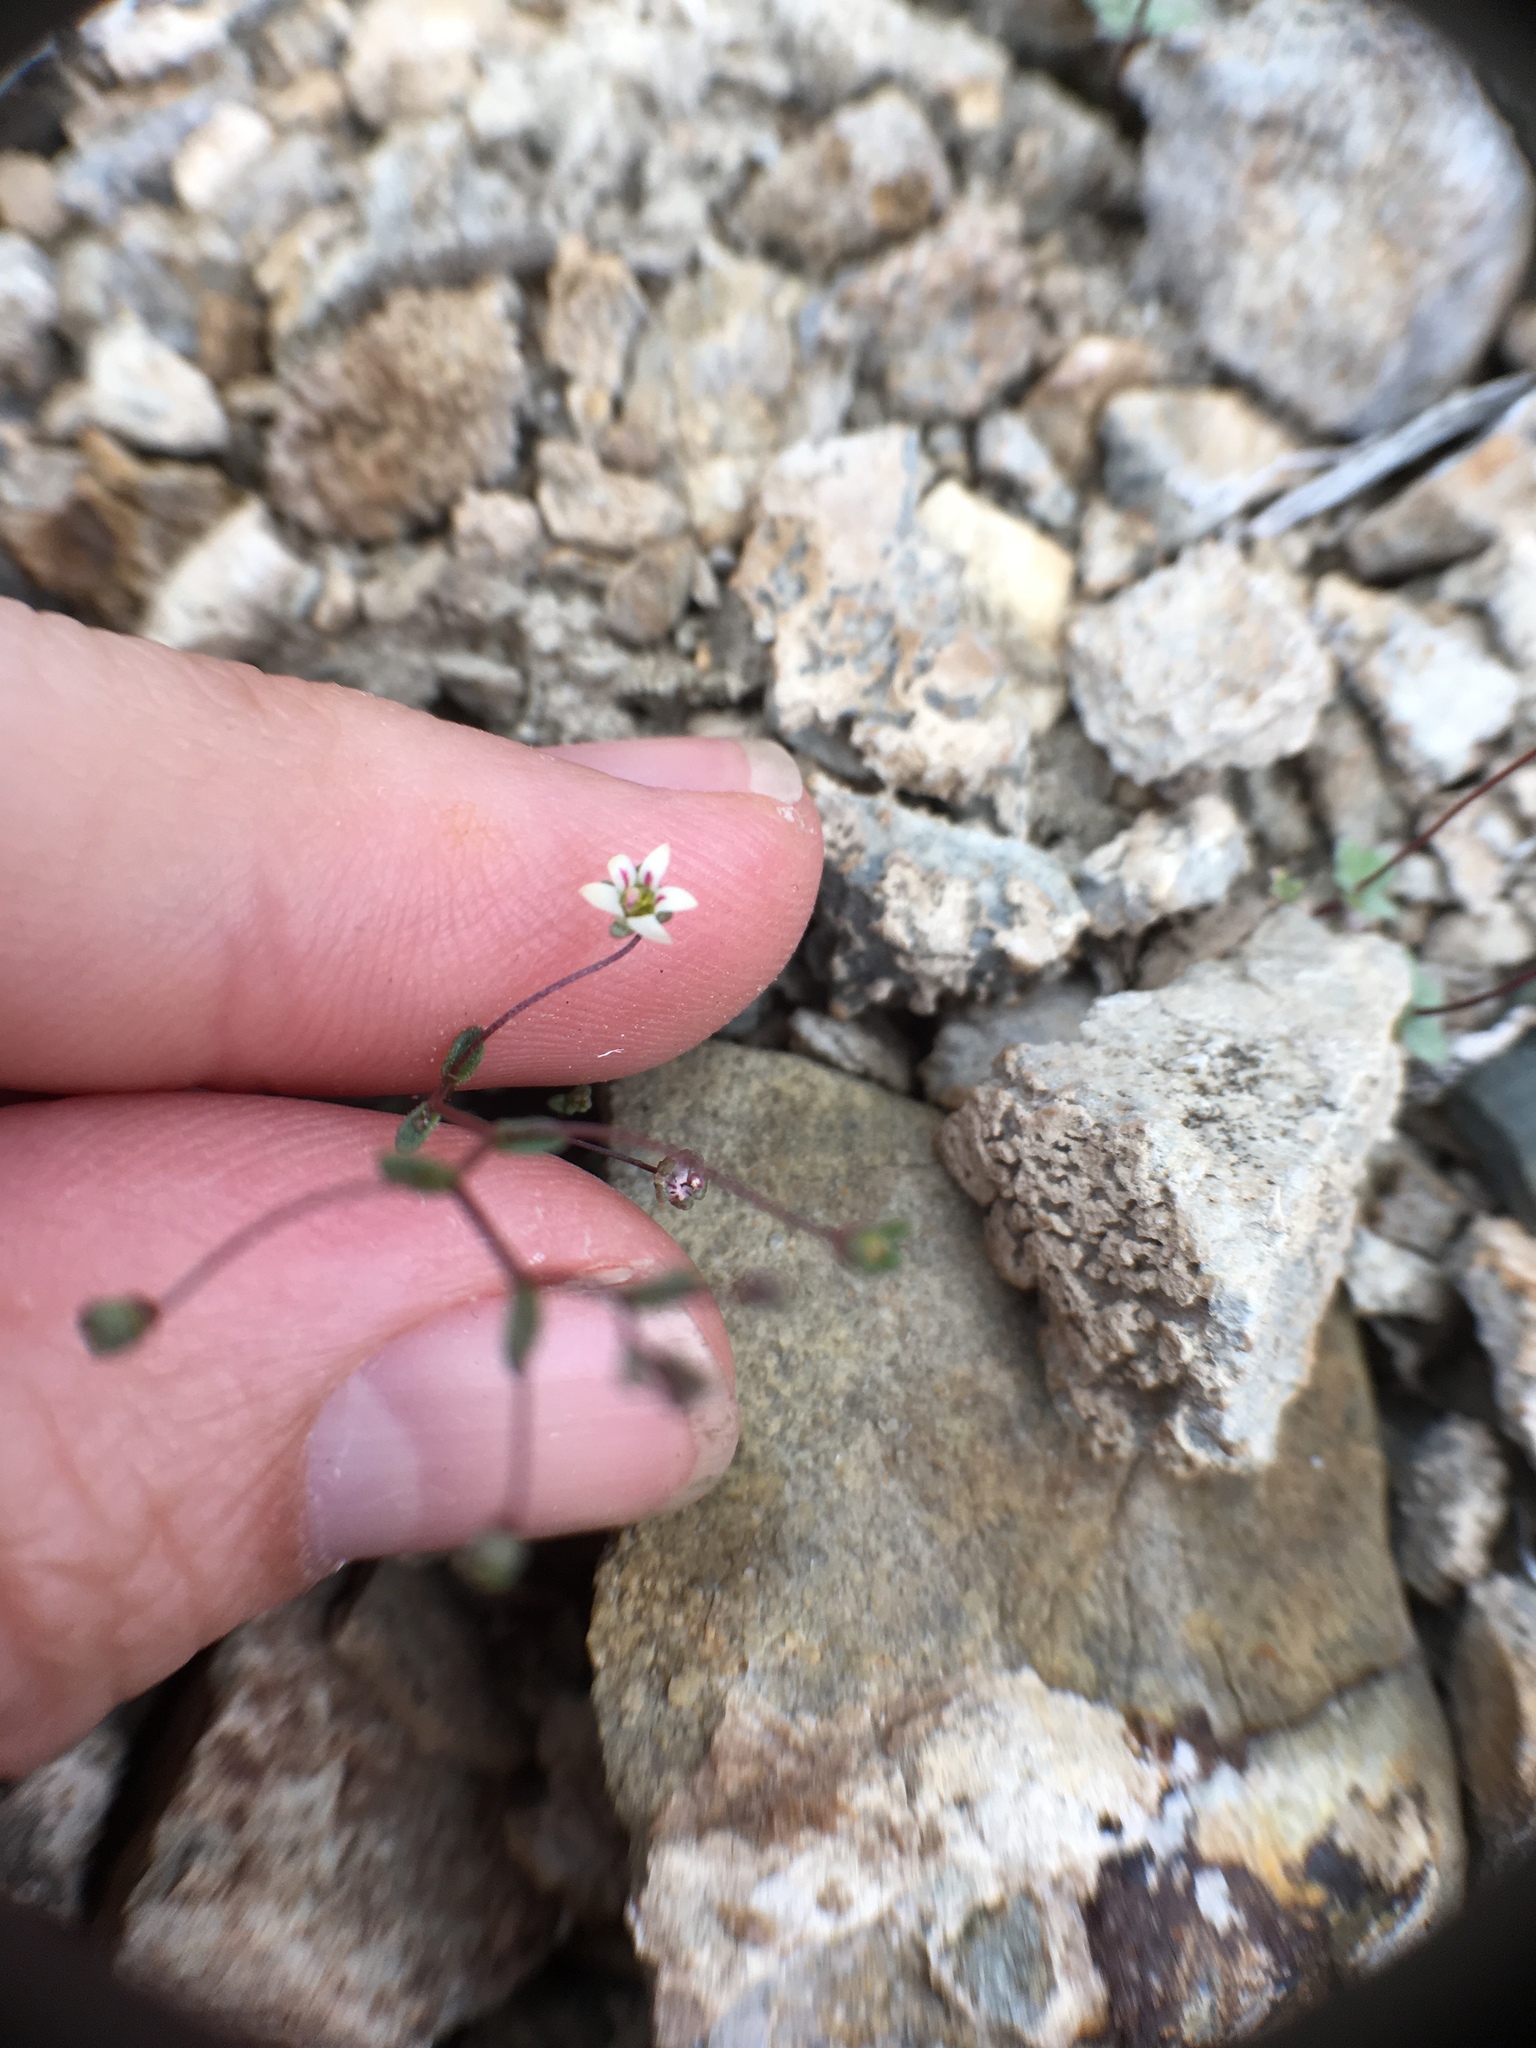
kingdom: Plantae
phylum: Tracheophyta
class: Magnoliopsida
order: Asterales
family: Campanulaceae
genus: Nemacladus
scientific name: Nemacladus inyoensis
